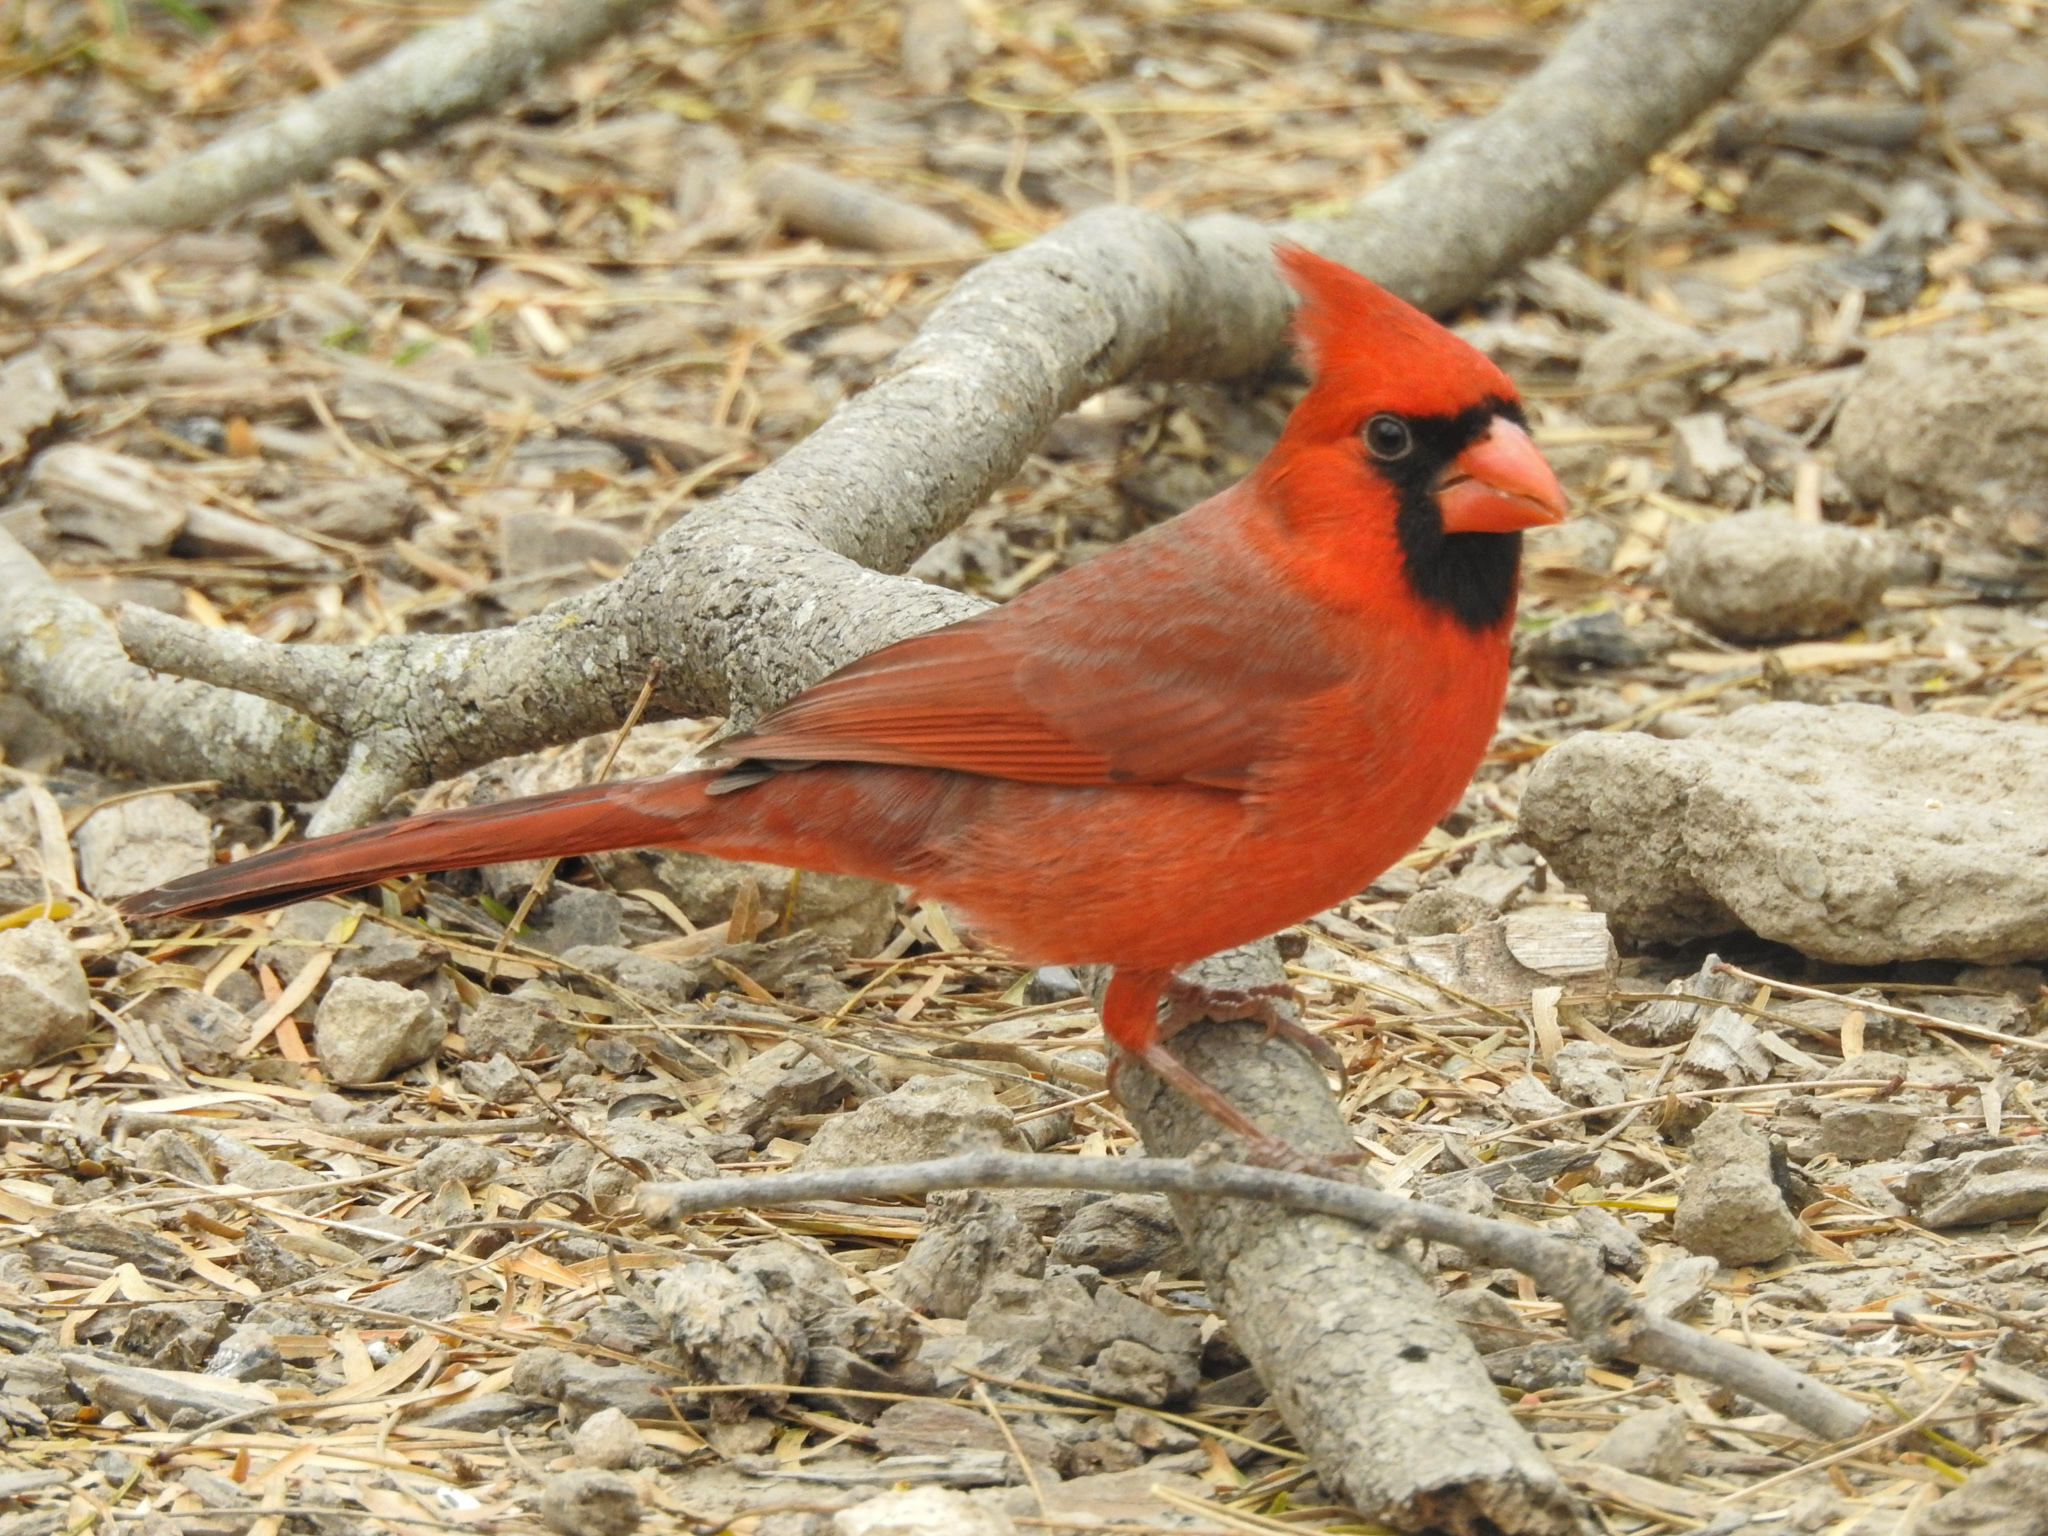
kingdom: Animalia
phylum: Chordata
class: Aves
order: Passeriformes
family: Cardinalidae
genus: Cardinalis
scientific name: Cardinalis cardinalis
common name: Northern cardinal
